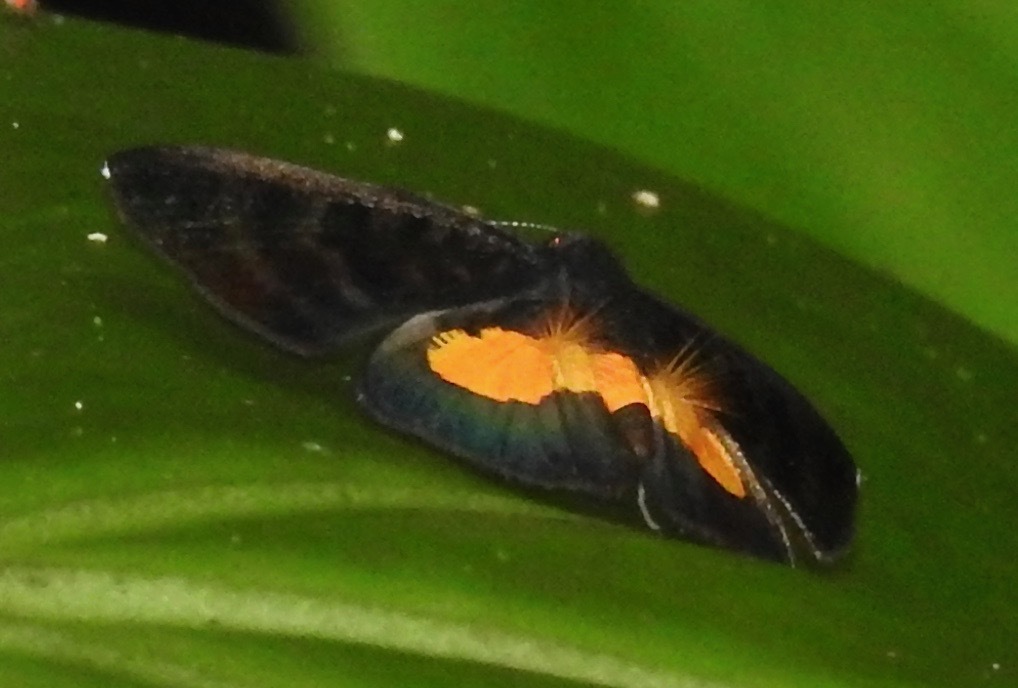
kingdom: Animalia
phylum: Arthropoda
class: Insecta
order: Lepidoptera
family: Riodinidae
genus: Pirascca
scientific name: Pirascca tyriotes
